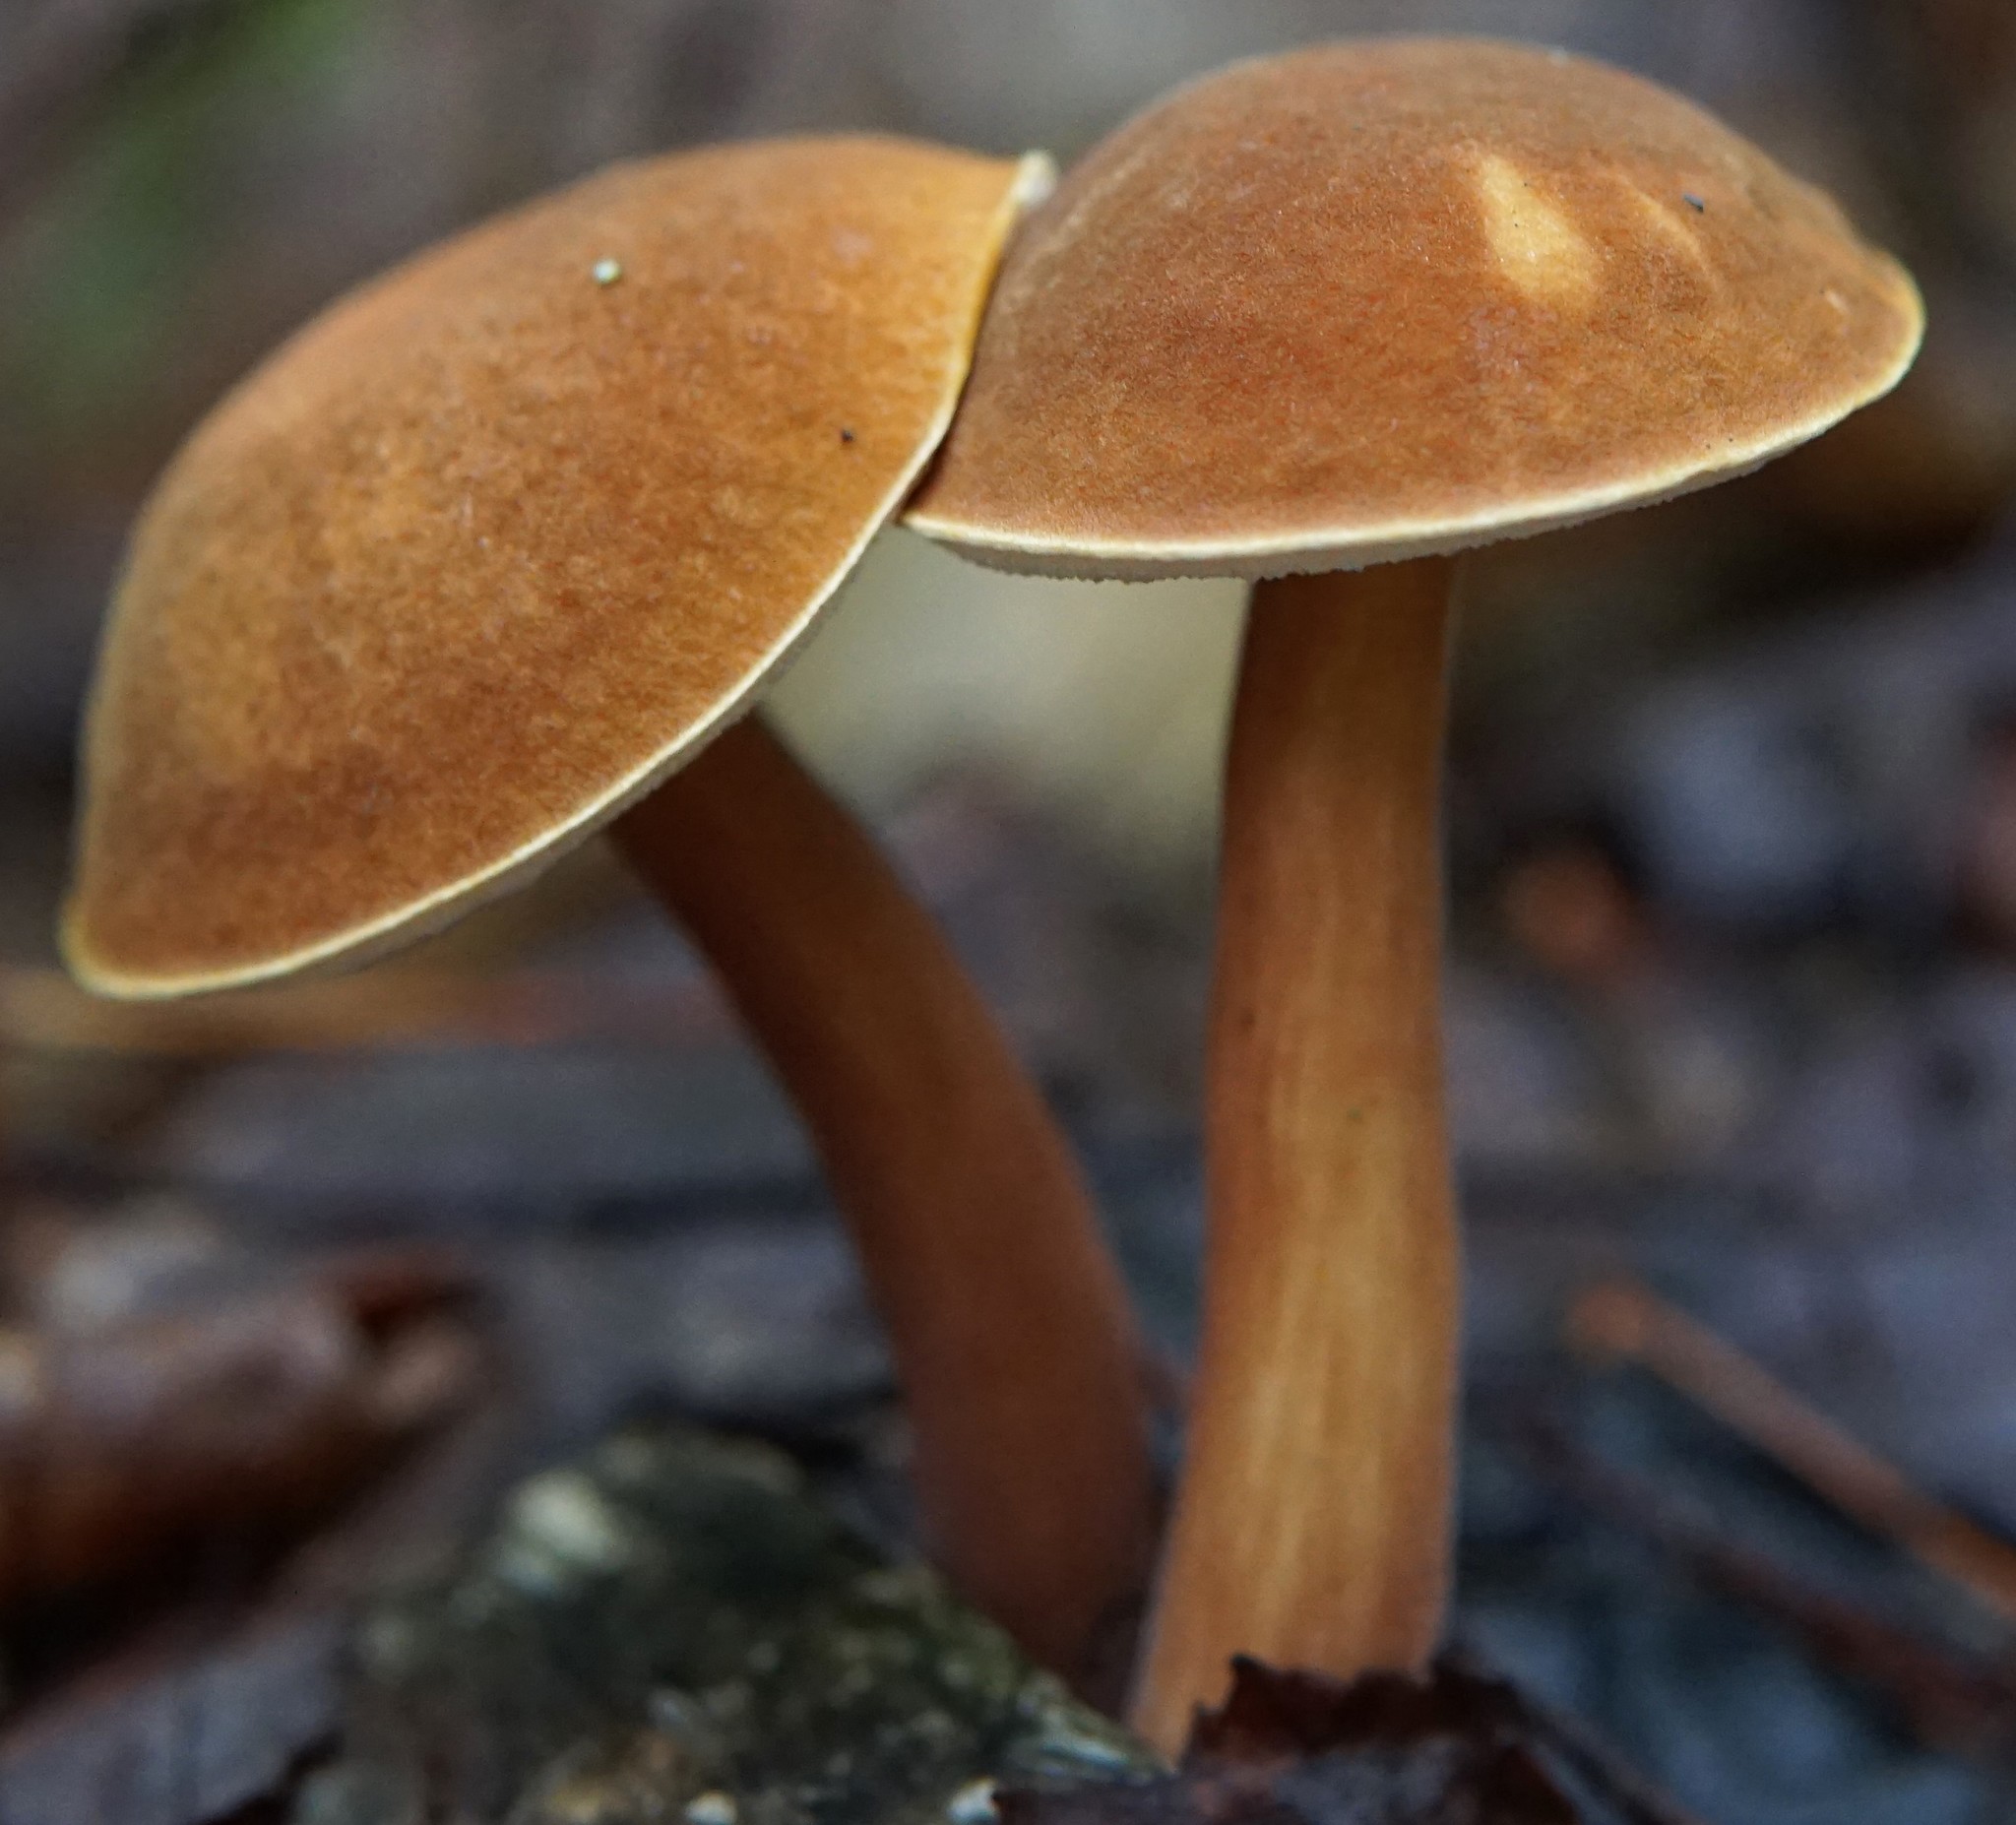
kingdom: Fungi
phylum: Basidiomycota
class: Agaricomycetes
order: Boletales
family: Boletaceae
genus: Austroboletus
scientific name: Austroboletus gracilis
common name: Graceful bolete
